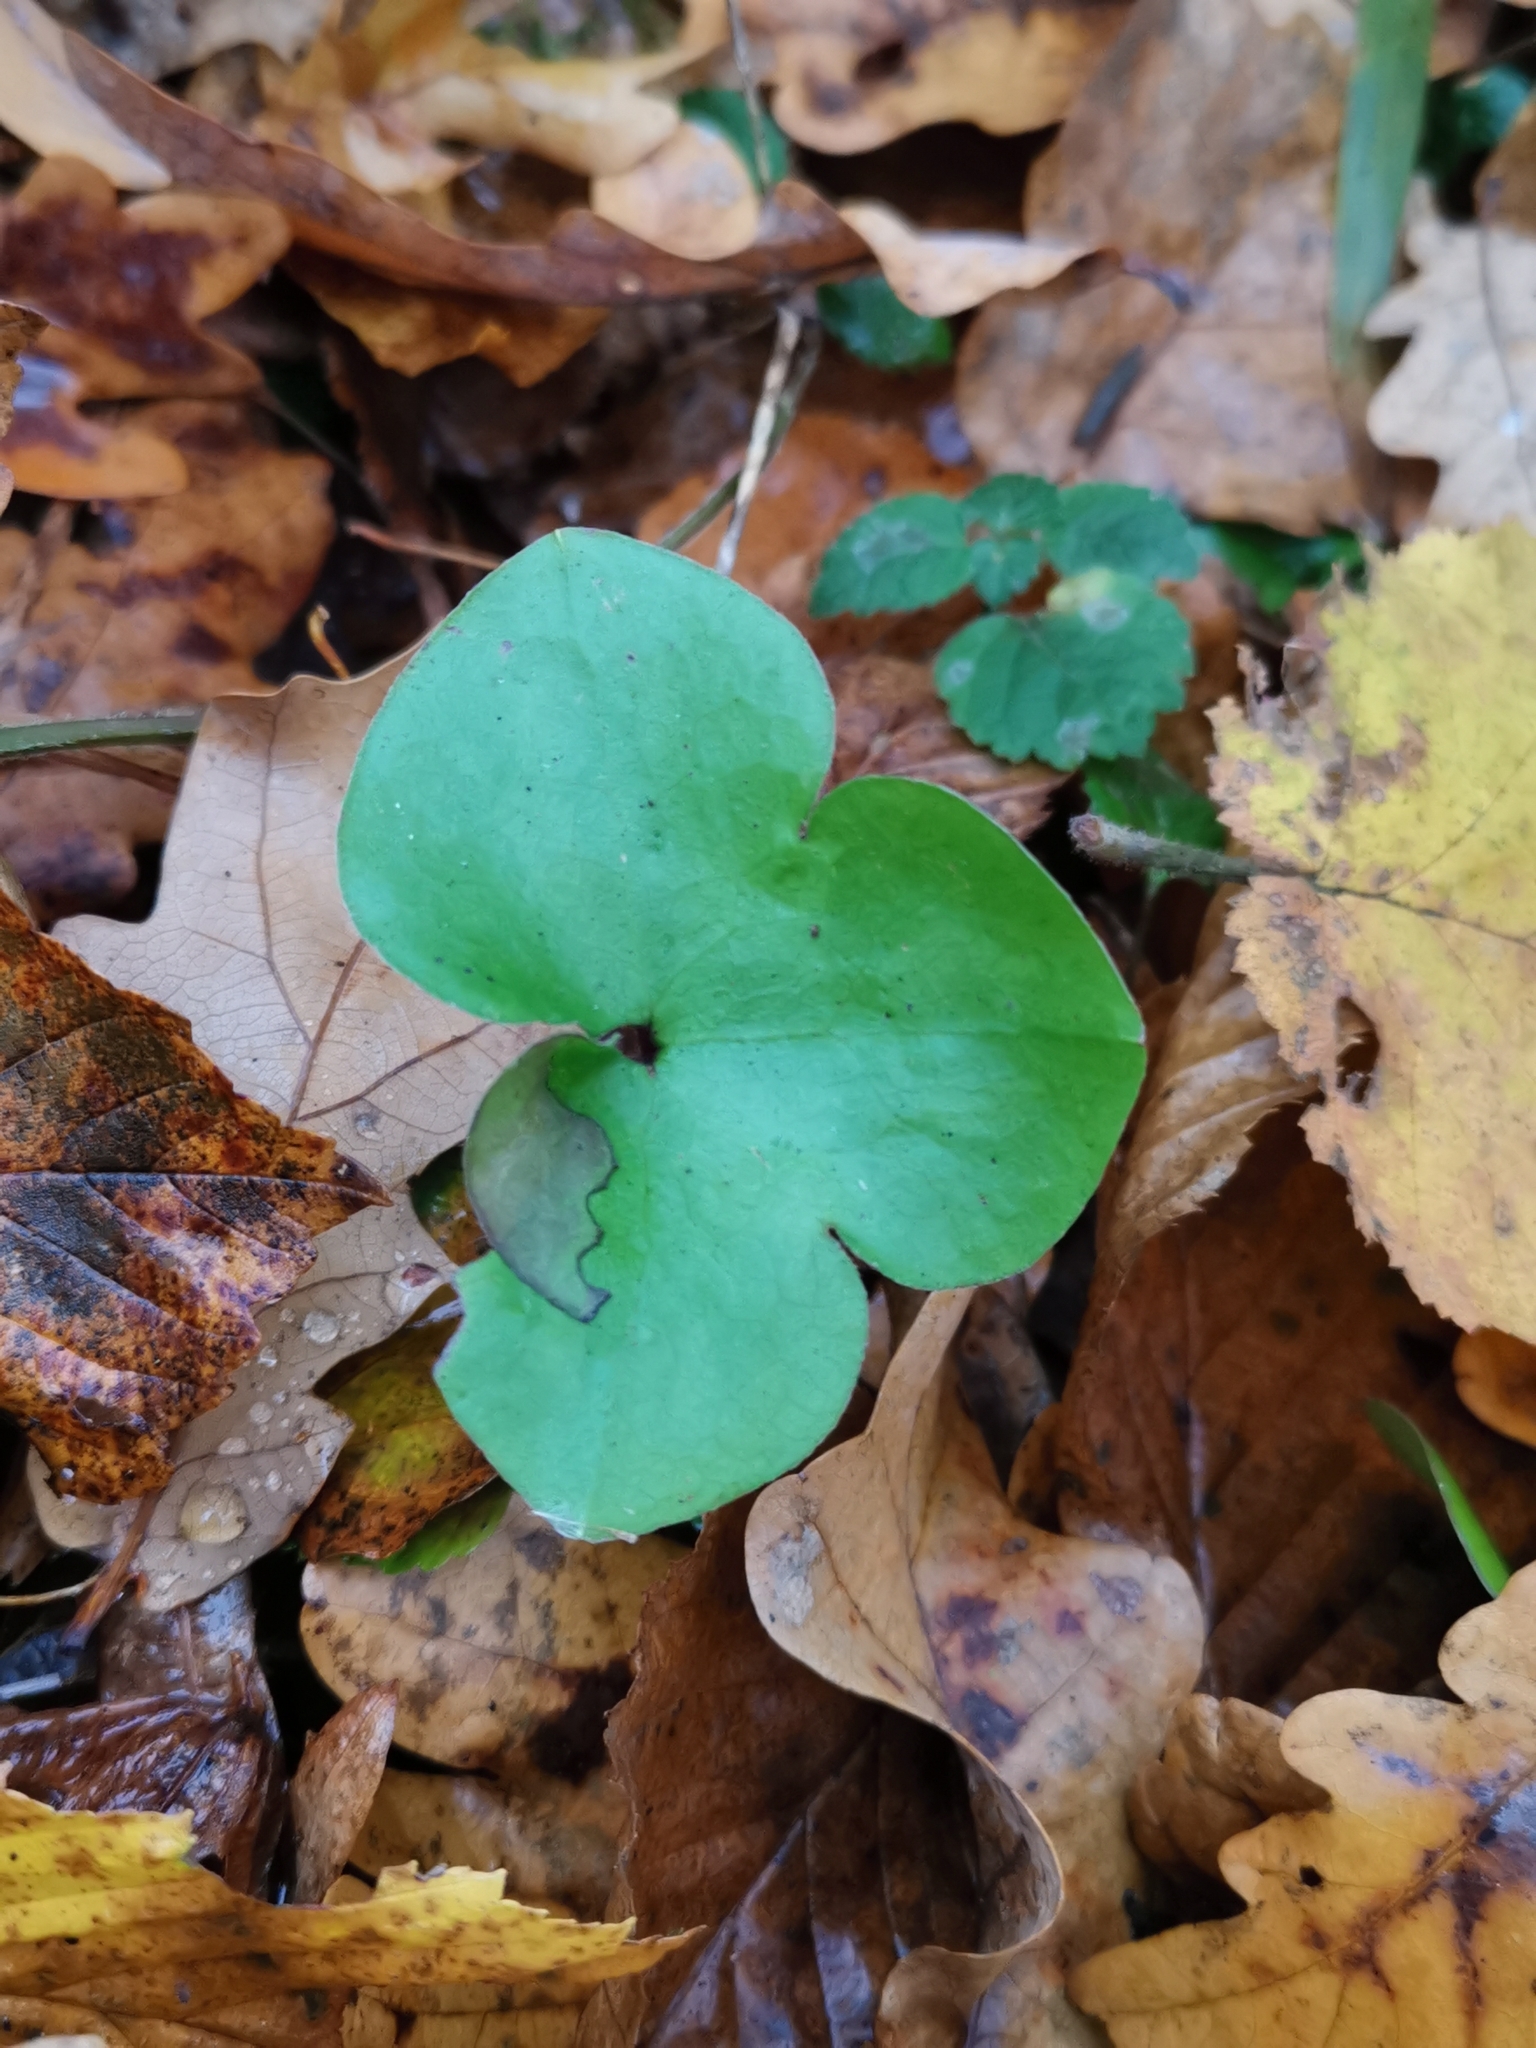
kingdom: Plantae
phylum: Tracheophyta
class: Magnoliopsida
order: Ranunculales
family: Ranunculaceae
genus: Hepatica
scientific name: Hepatica nobilis
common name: Liverleaf
